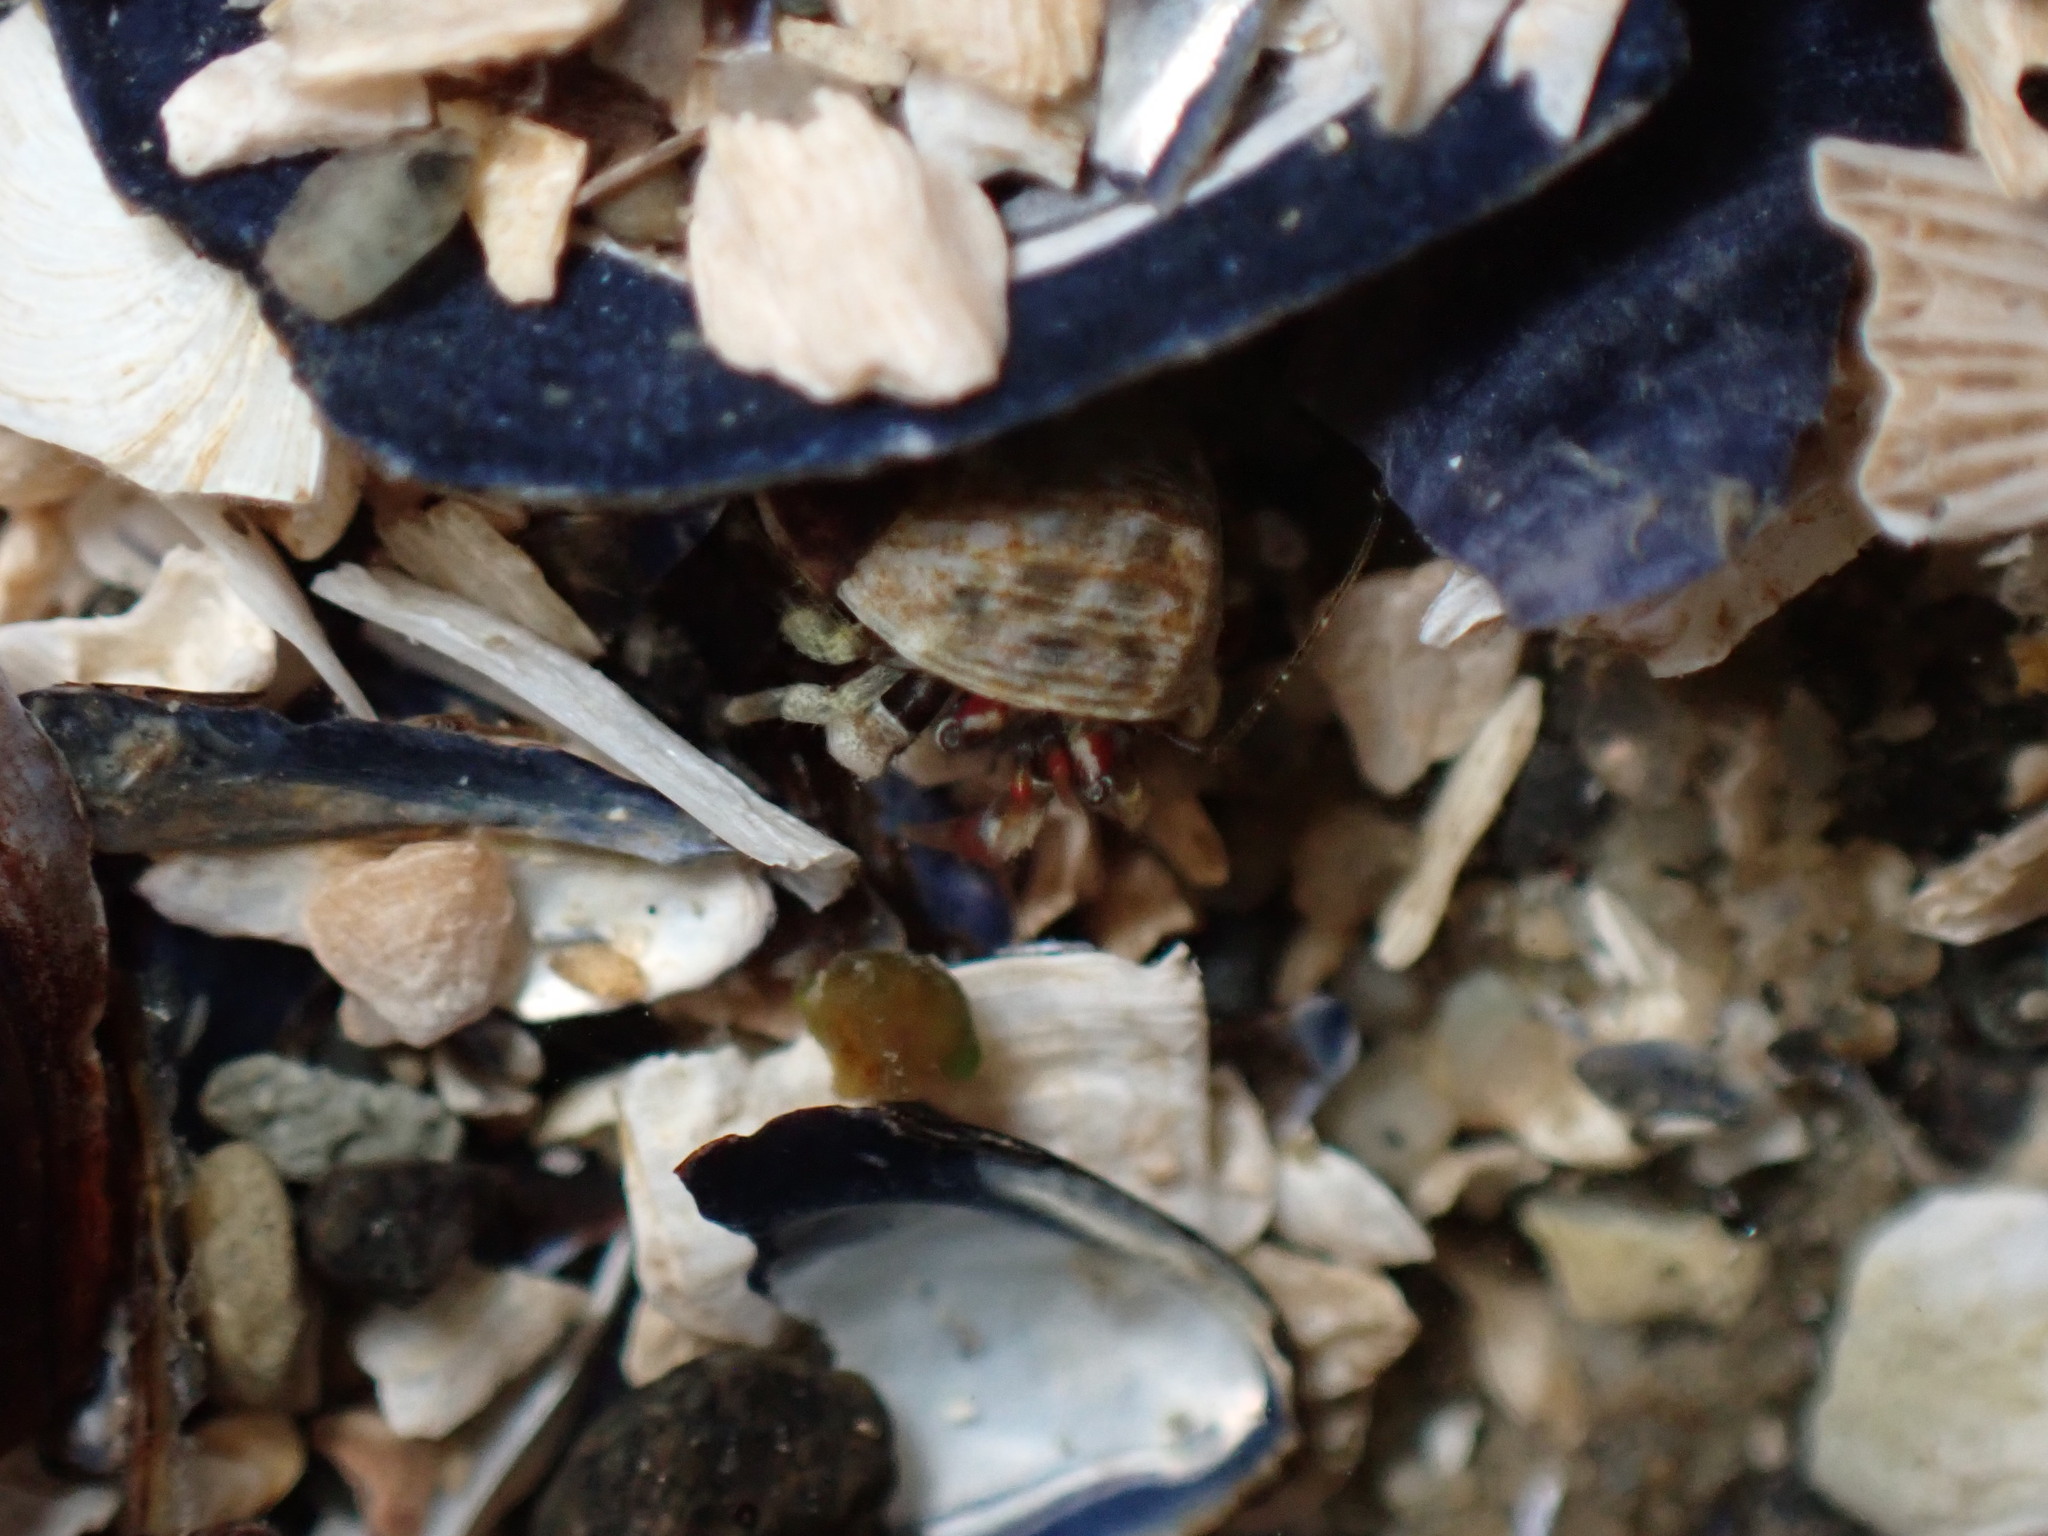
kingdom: Animalia
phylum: Arthropoda
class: Malacostraca
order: Decapoda
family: Paguridae
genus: Pagurus
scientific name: Pagurus hirsutiusculus
